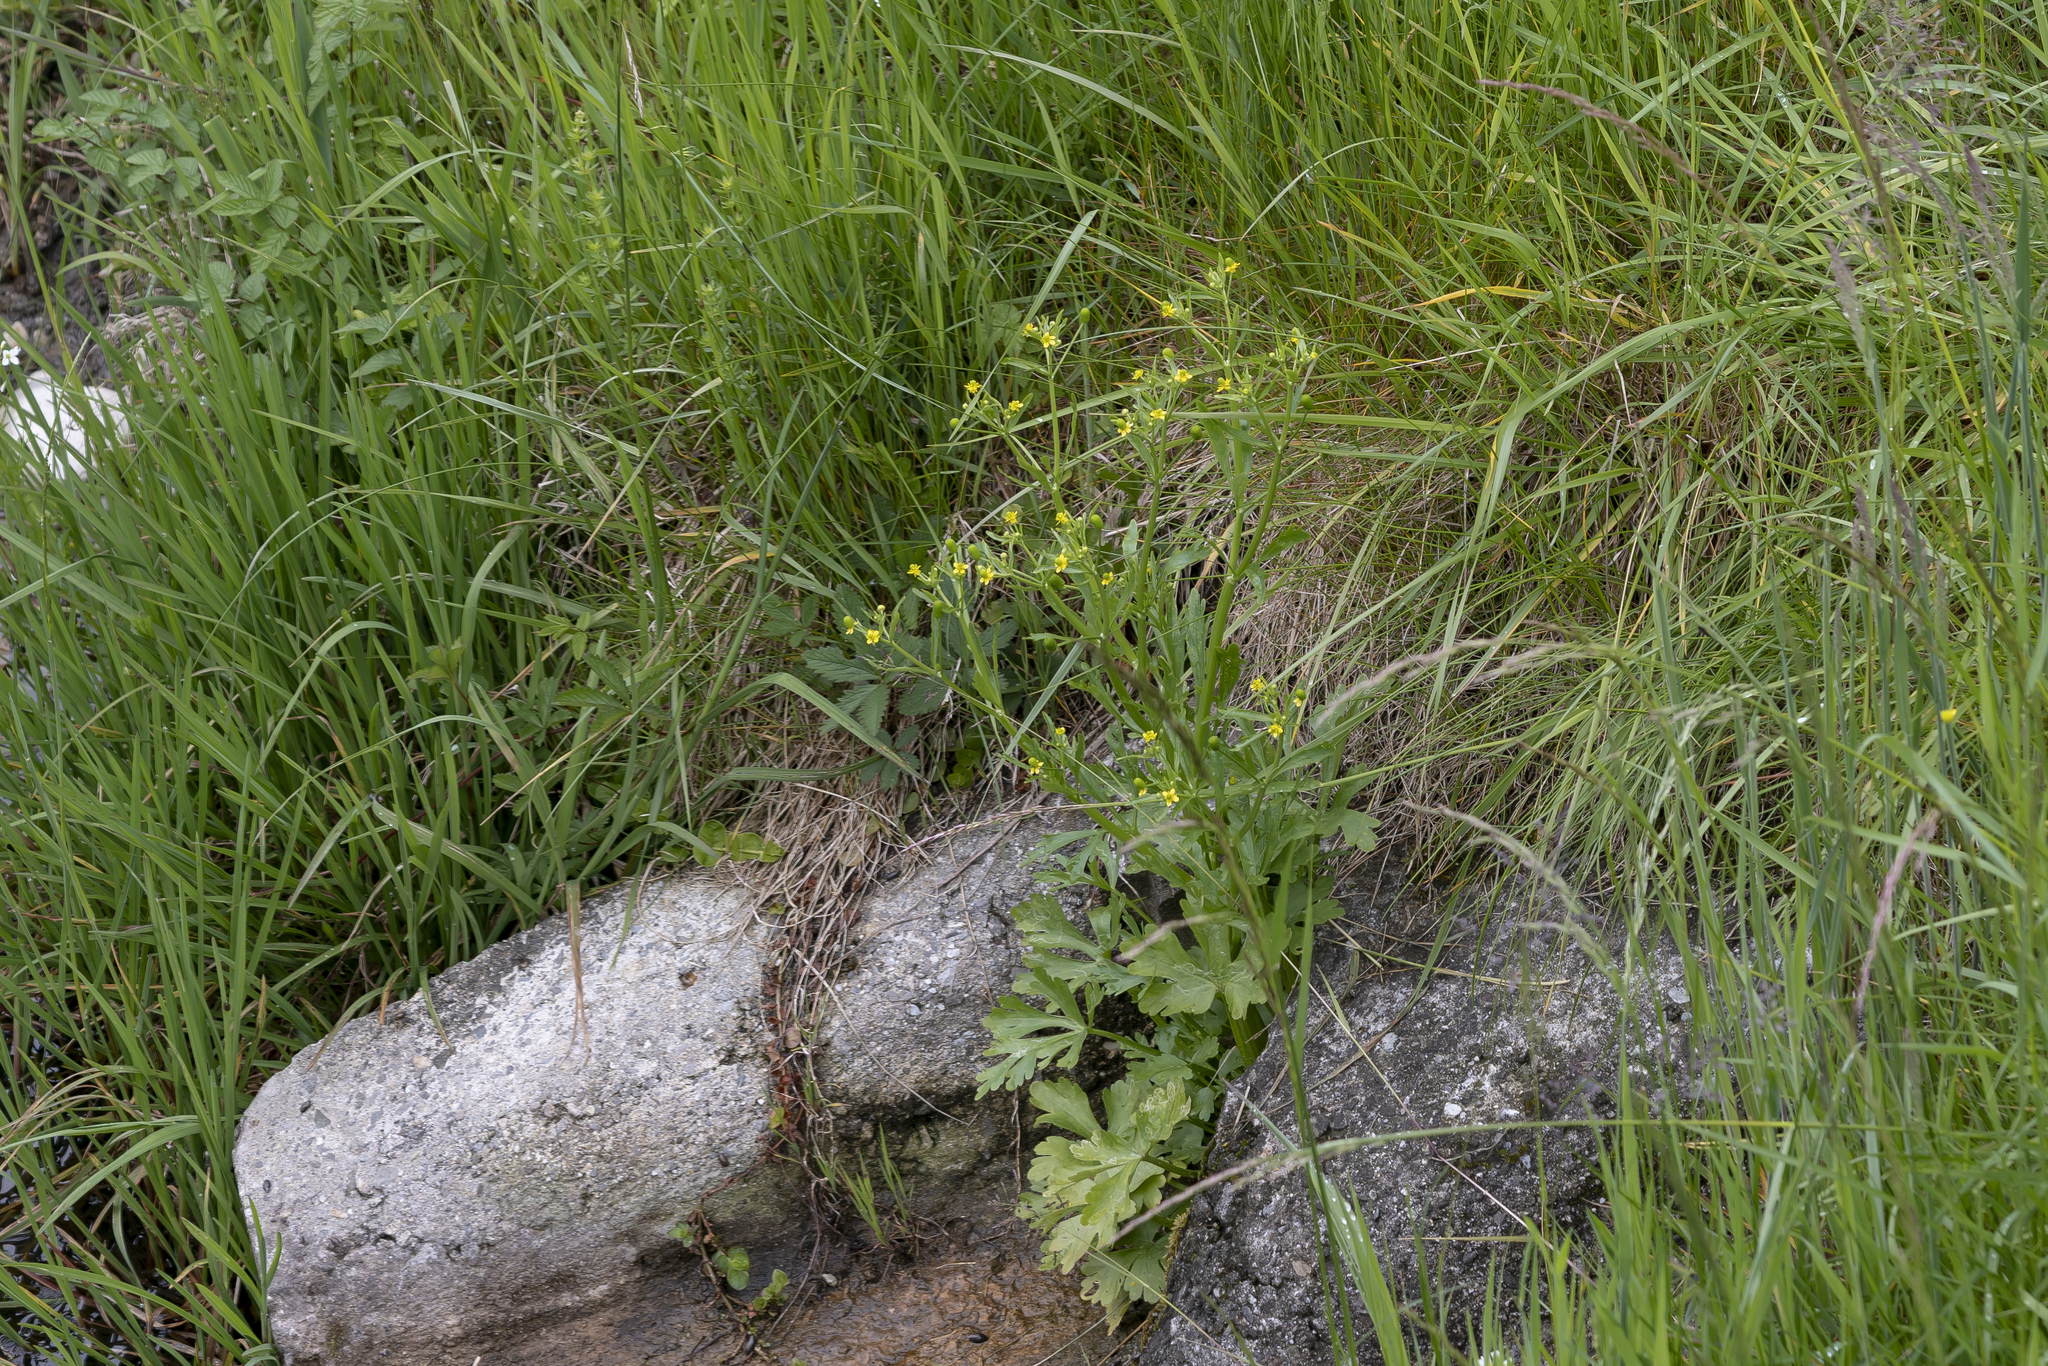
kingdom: Plantae
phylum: Tracheophyta
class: Magnoliopsida
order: Ranunculales
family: Ranunculaceae
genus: Ranunculus
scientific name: Ranunculus sceleratus
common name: Celery-leaved buttercup
